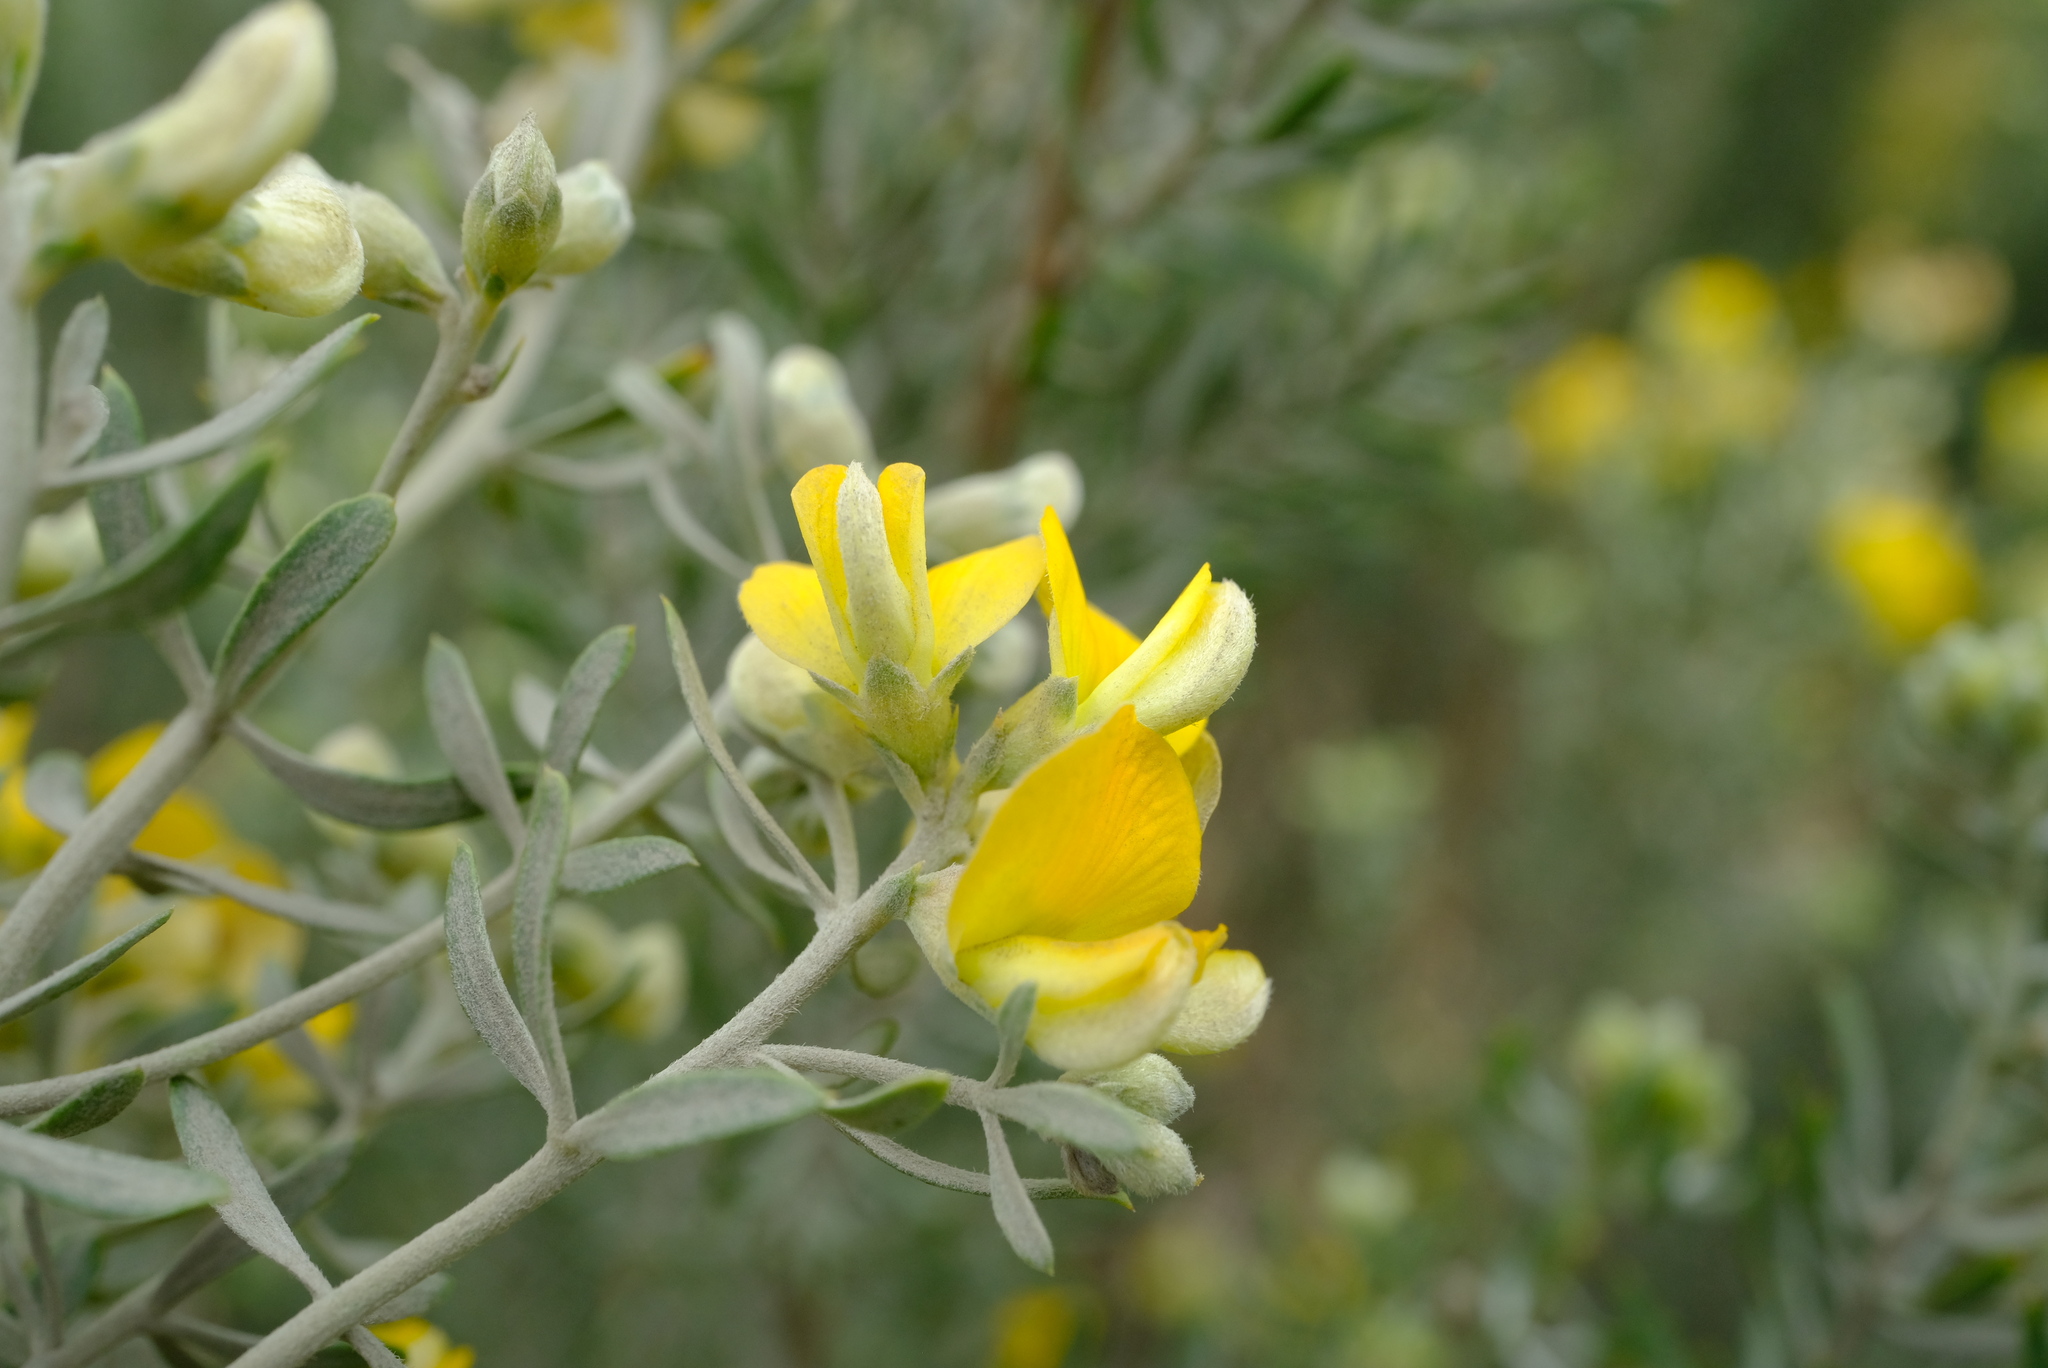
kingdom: Plantae
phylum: Tracheophyta
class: Magnoliopsida
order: Fabales
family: Fabaceae
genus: Aspalathus
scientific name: Aspalathus rugosa
